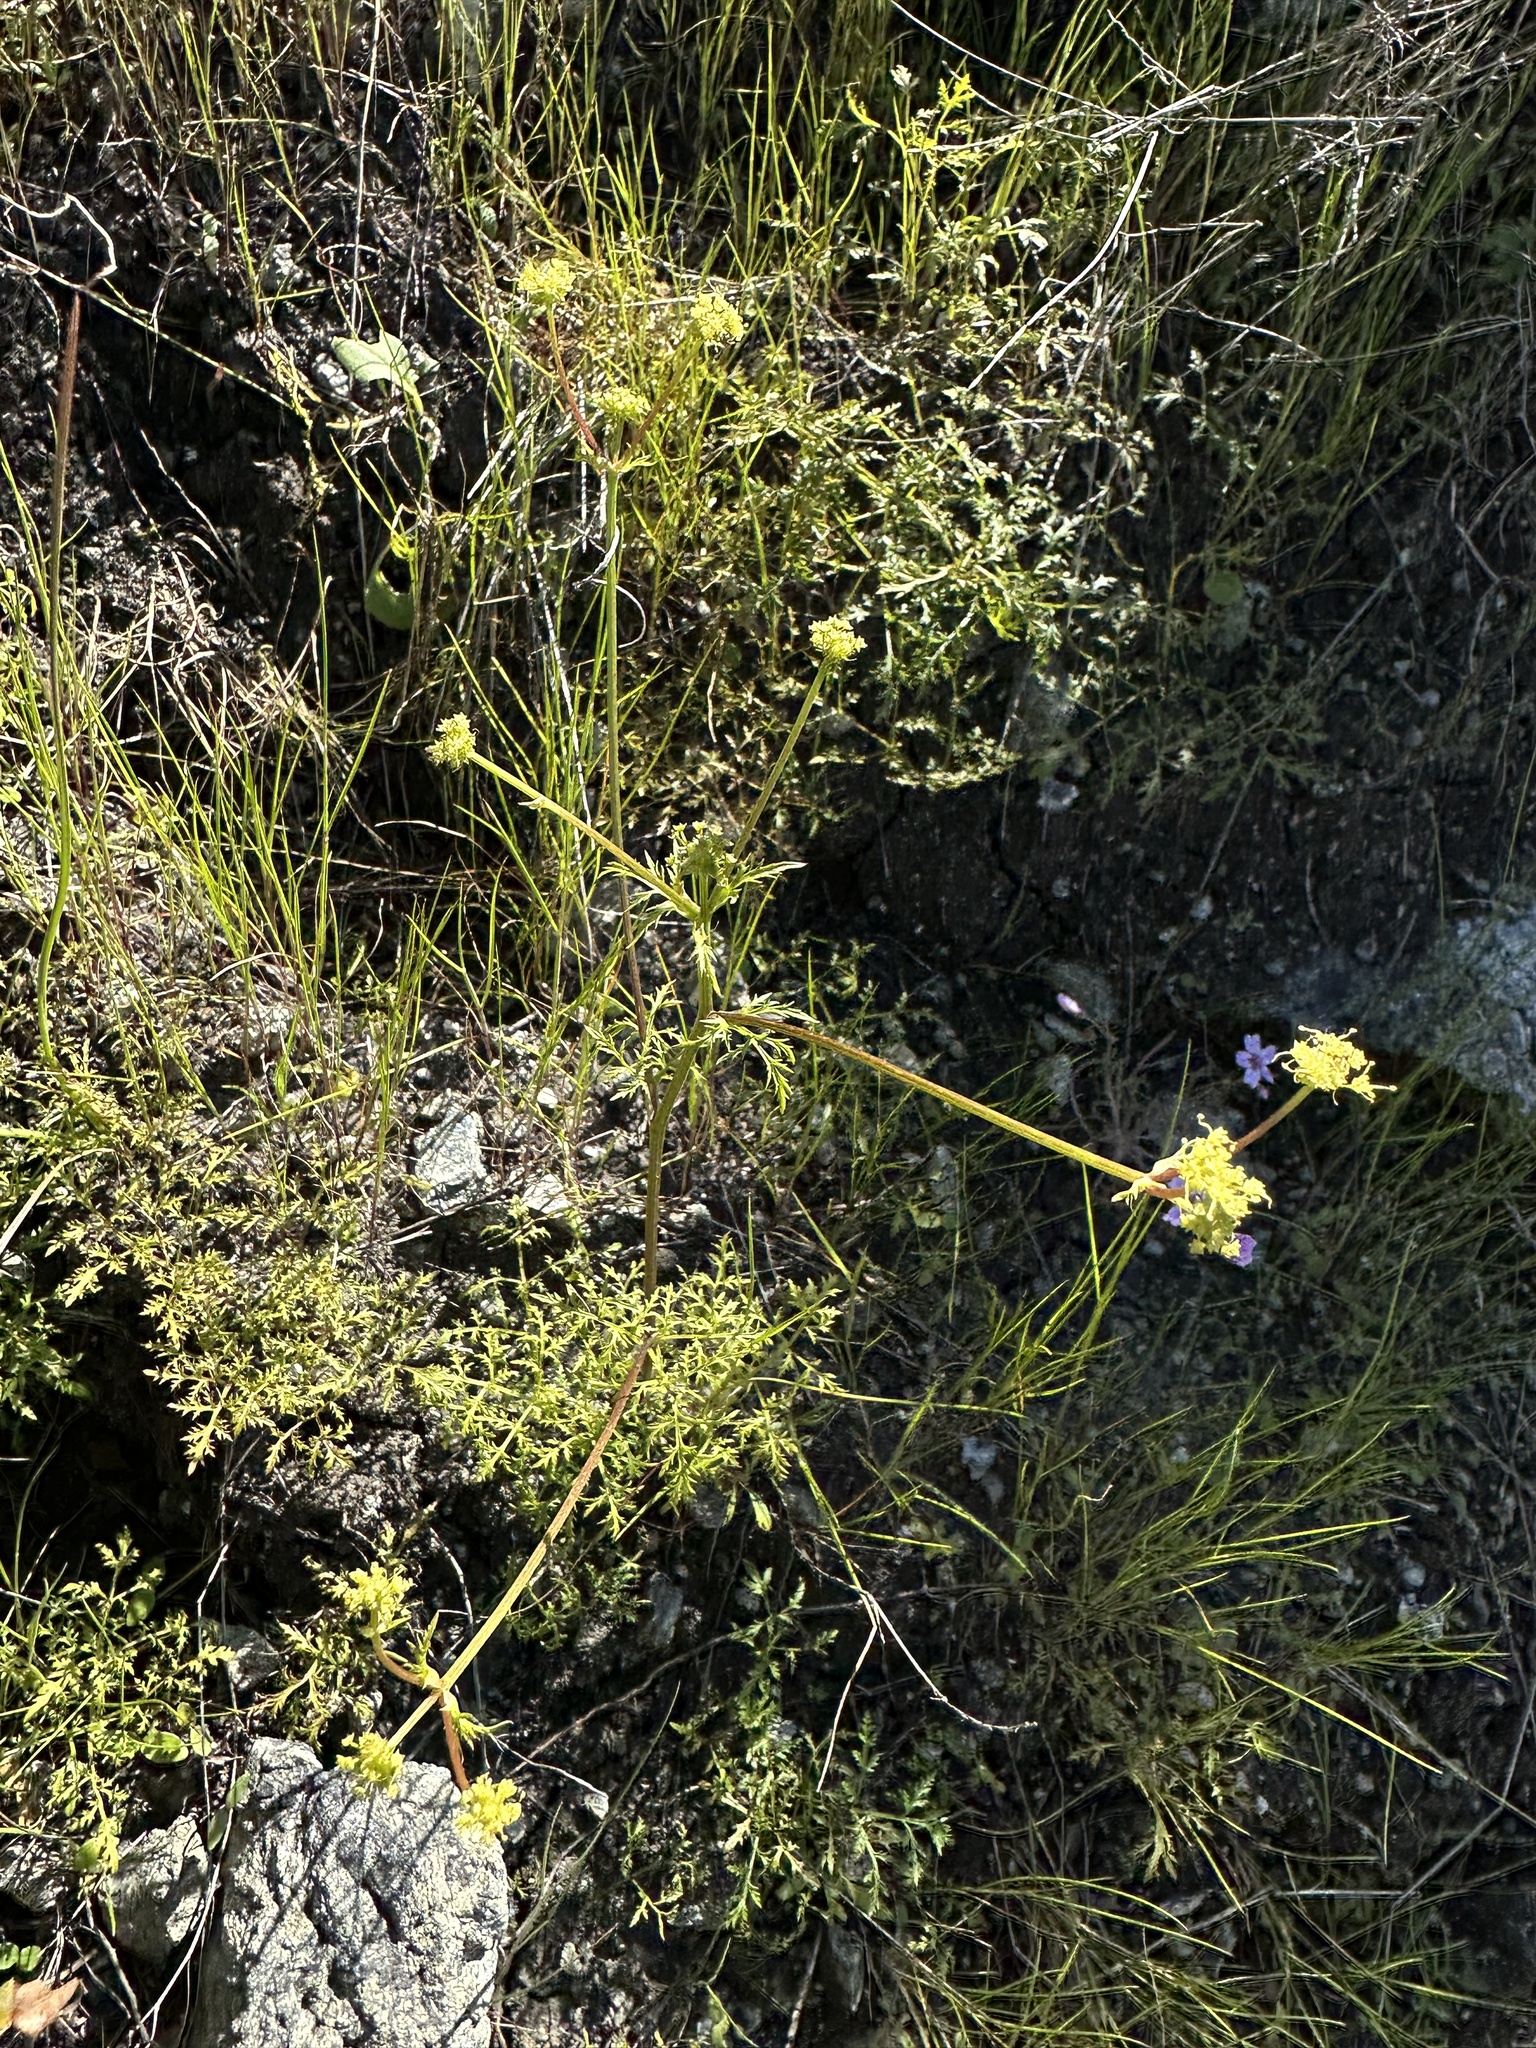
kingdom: Plantae
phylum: Tracheophyta
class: Magnoliopsida
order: Apiales
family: Apiaceae
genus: Sanicula
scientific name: Sanicula tuberosa
